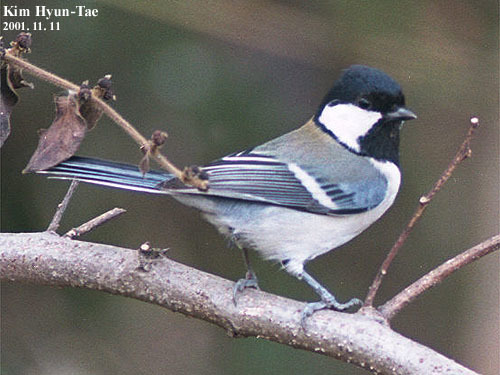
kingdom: Animalia
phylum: Chordata
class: Aves
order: Passeriformes
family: Paridae
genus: Parus
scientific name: Parus minor
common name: Japanese tit
